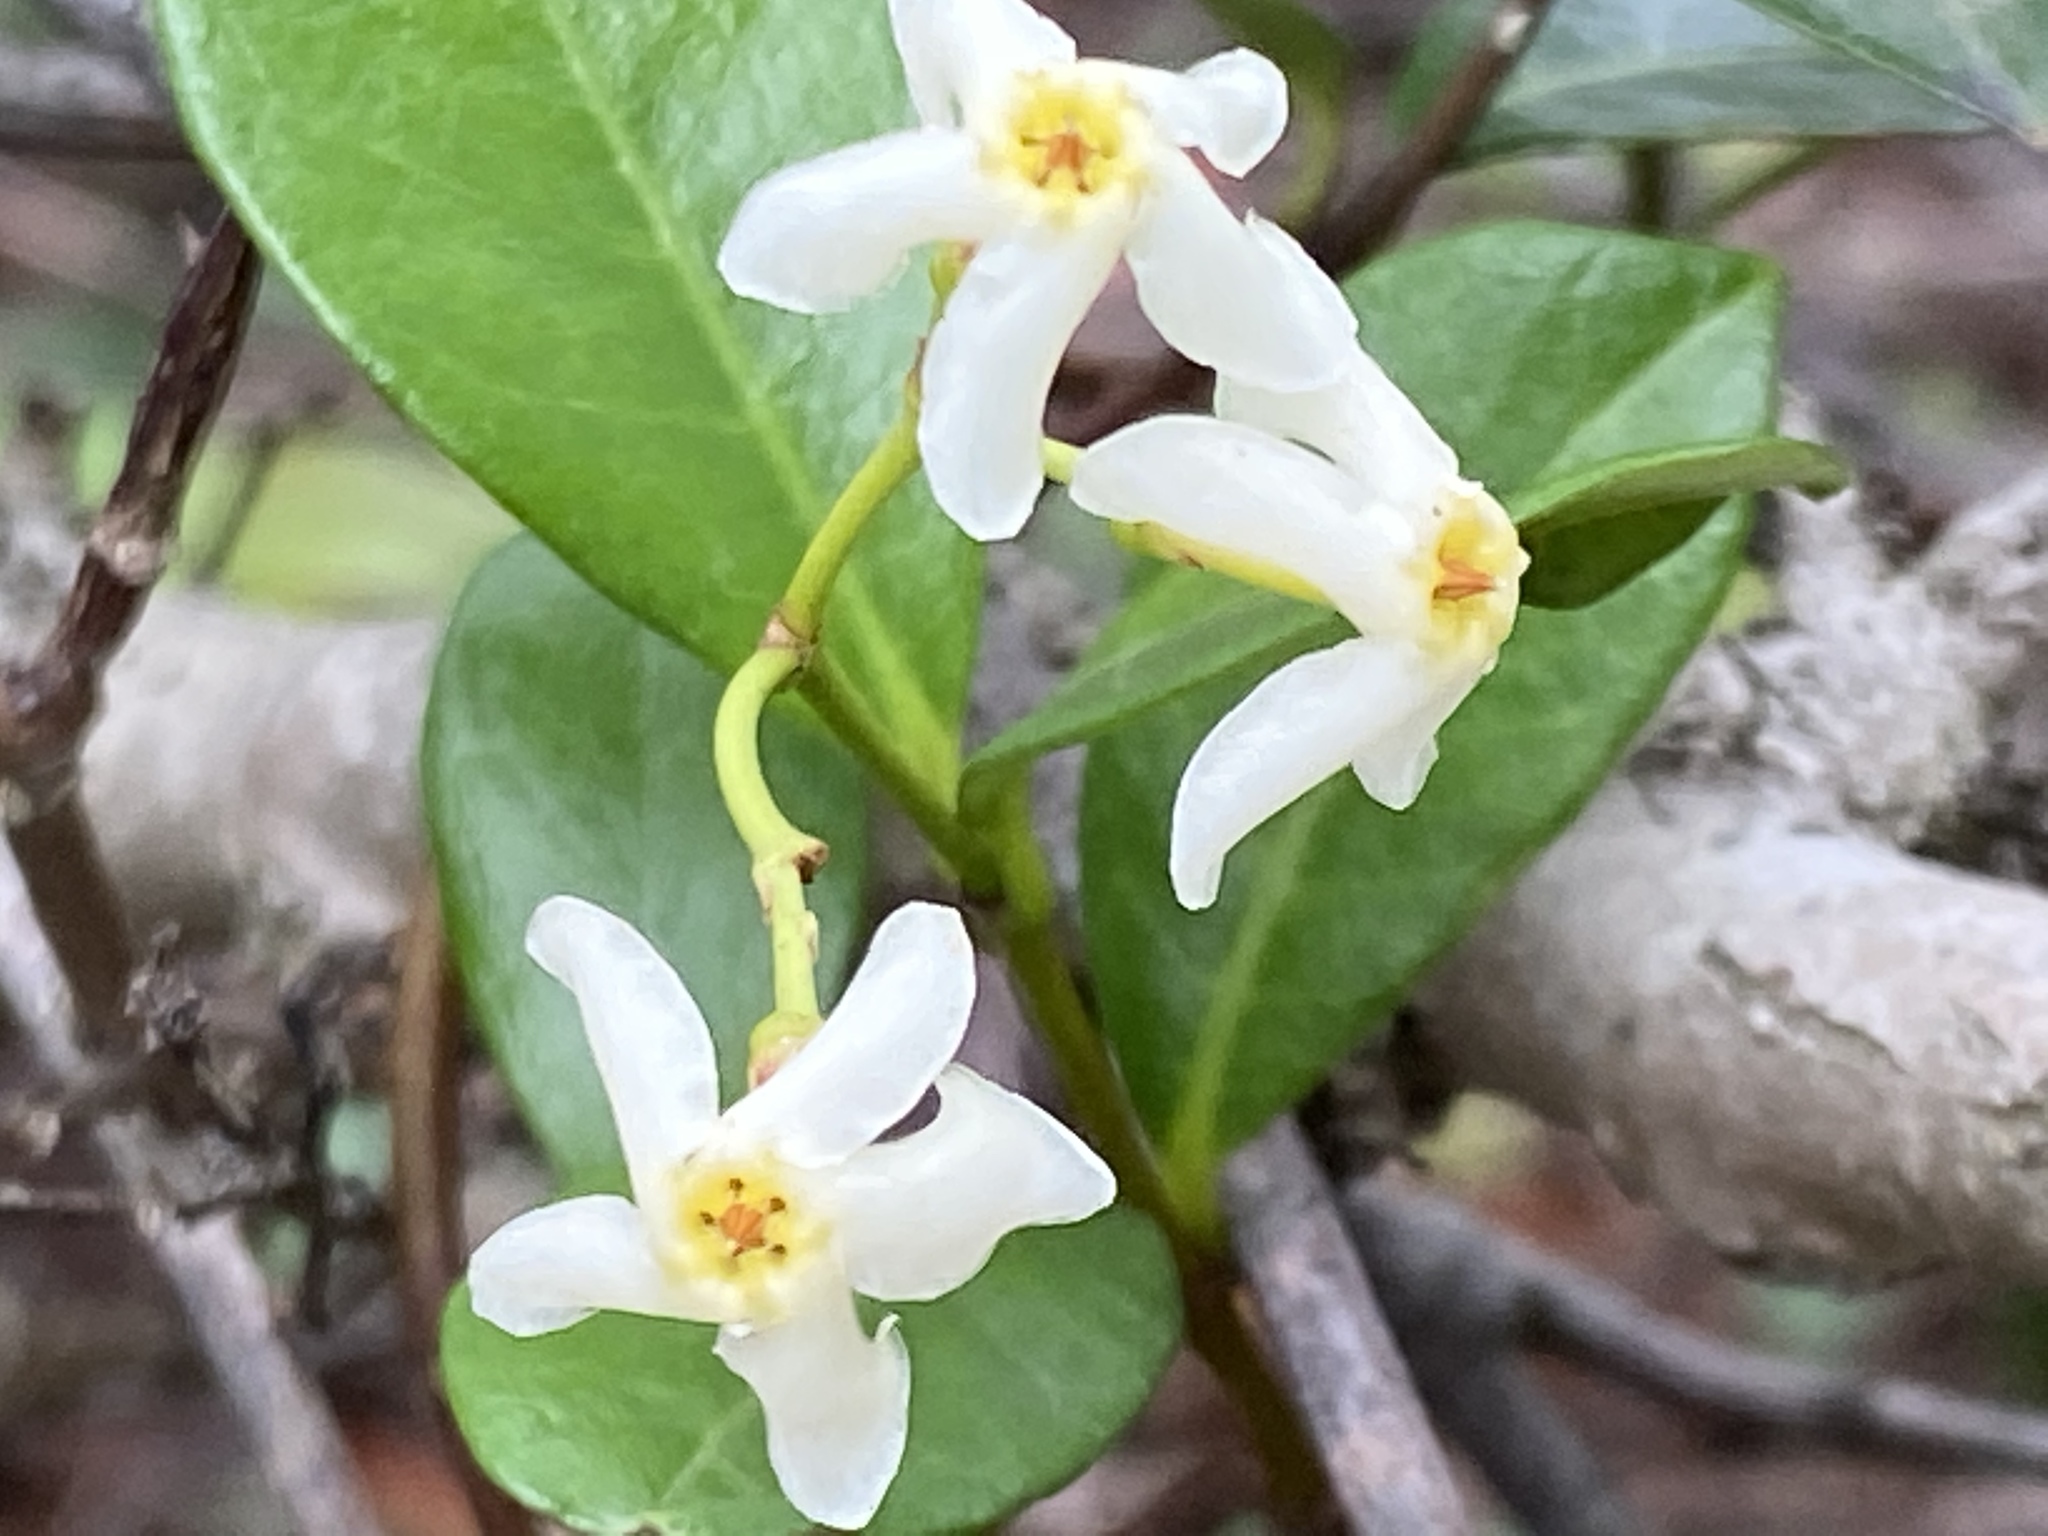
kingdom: Plantae
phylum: Tracheophyta
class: Magnoliopsida
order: Gentianales
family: Apocynaceae
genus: Trachelospermum
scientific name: Trachelospermum asiaticum
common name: Asiatic jasmine
